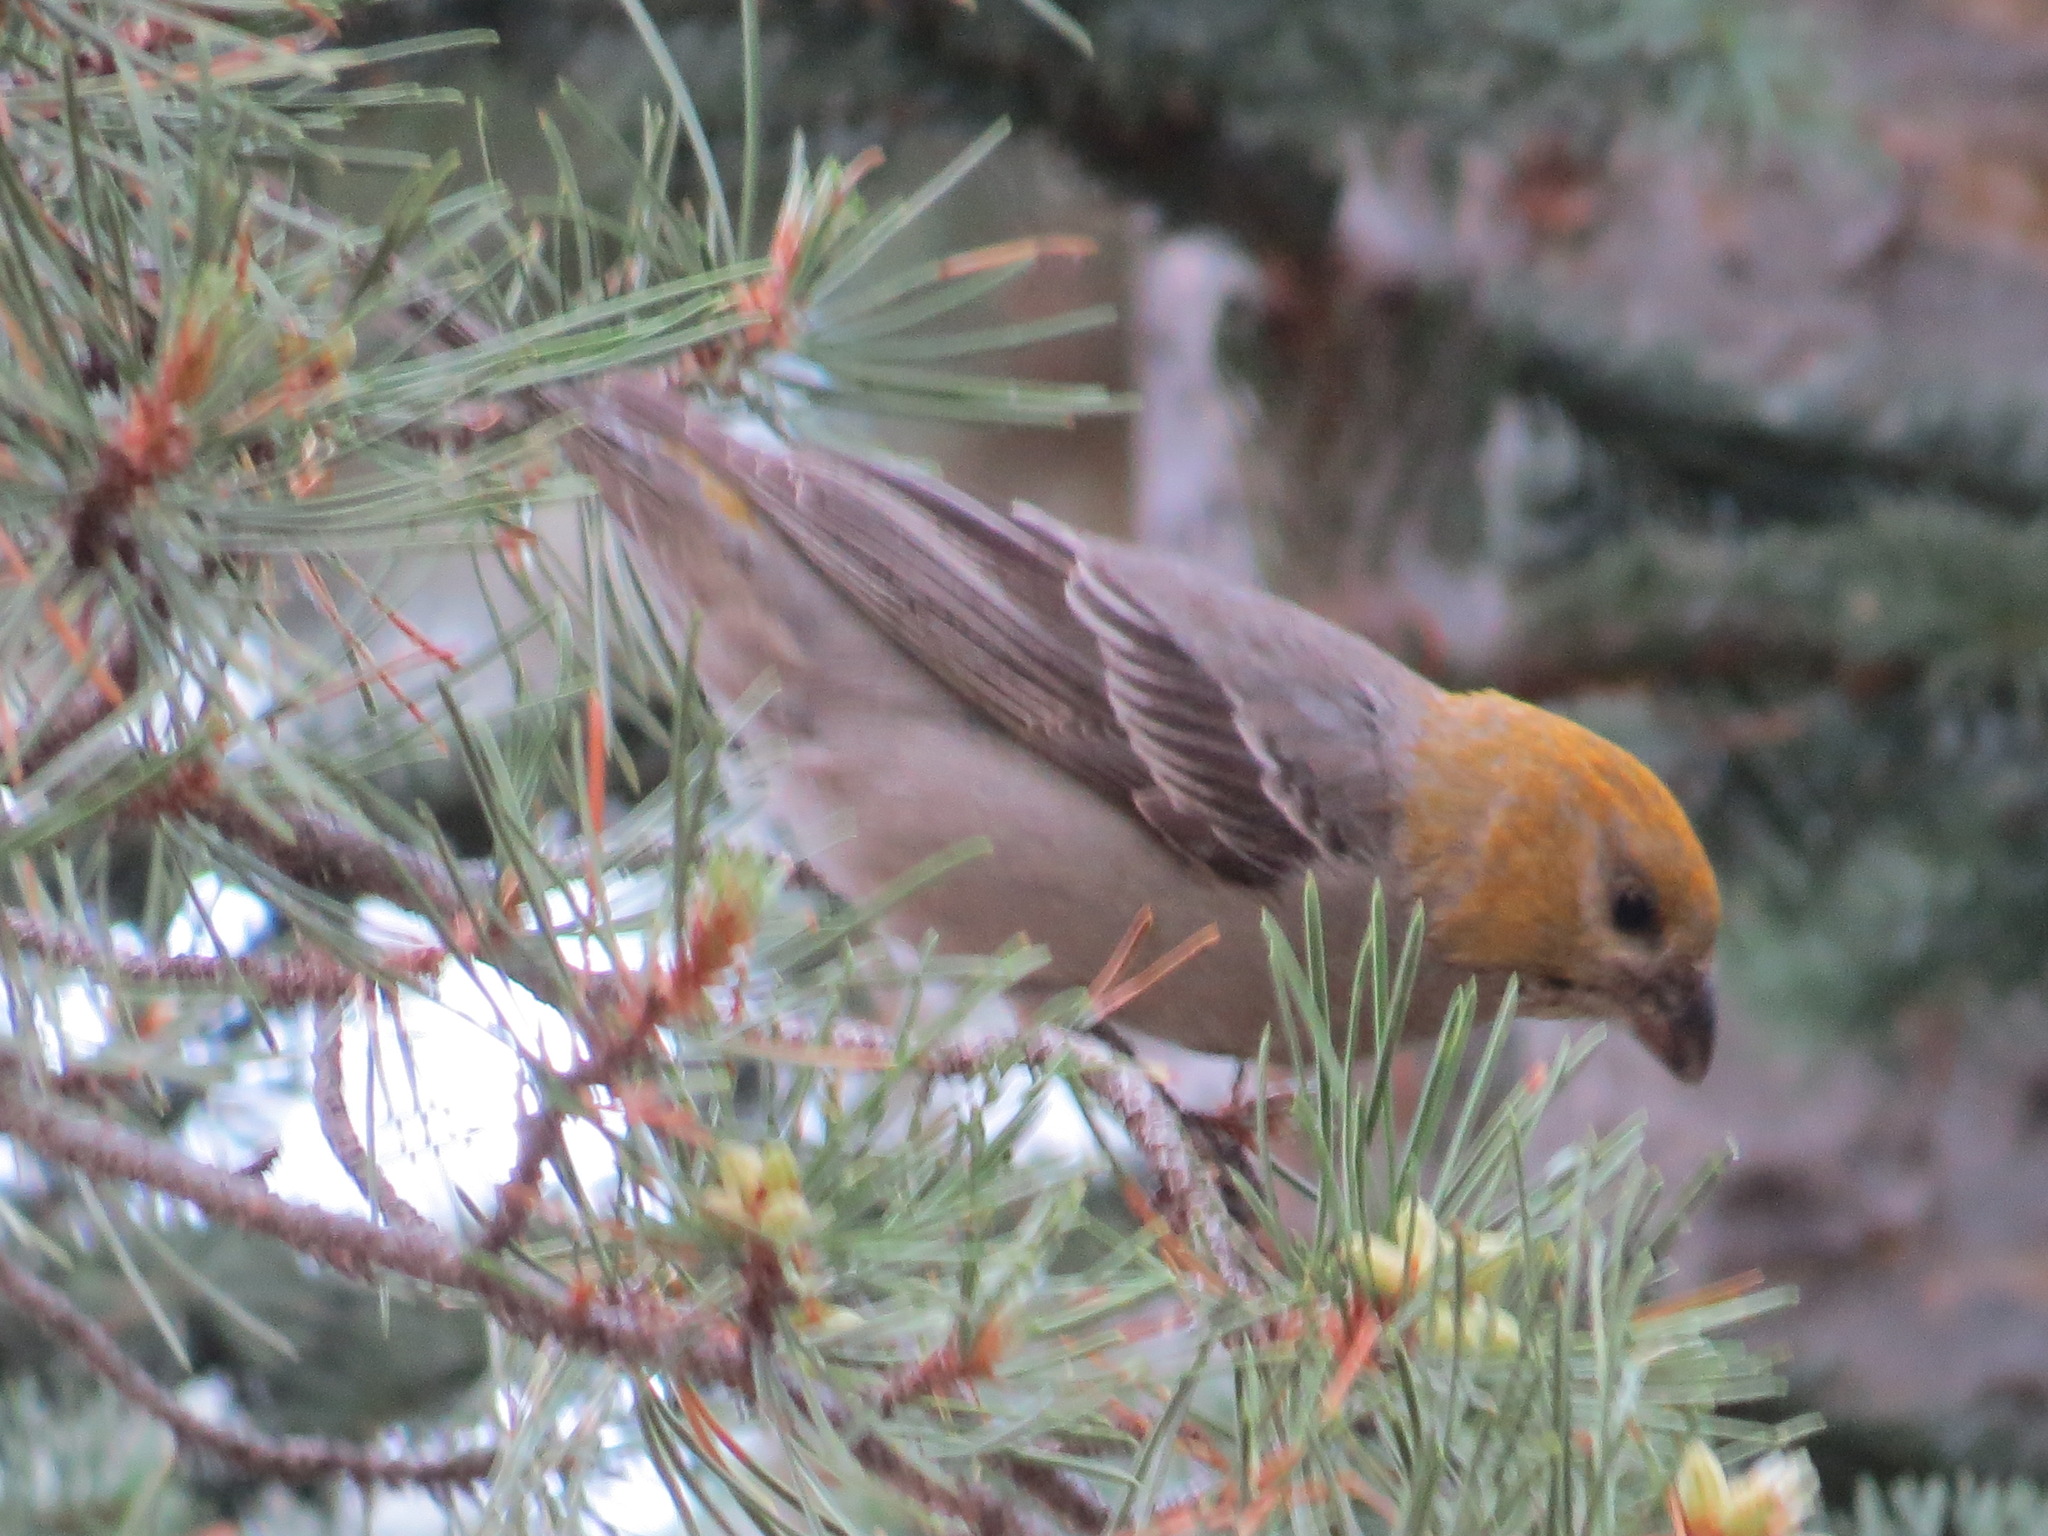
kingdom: Animalia
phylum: Chordata
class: Aves
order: Passeriformes
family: Fringillidae
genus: Pinicola
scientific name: Pinicola enucleator
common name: Pine grosbeak
